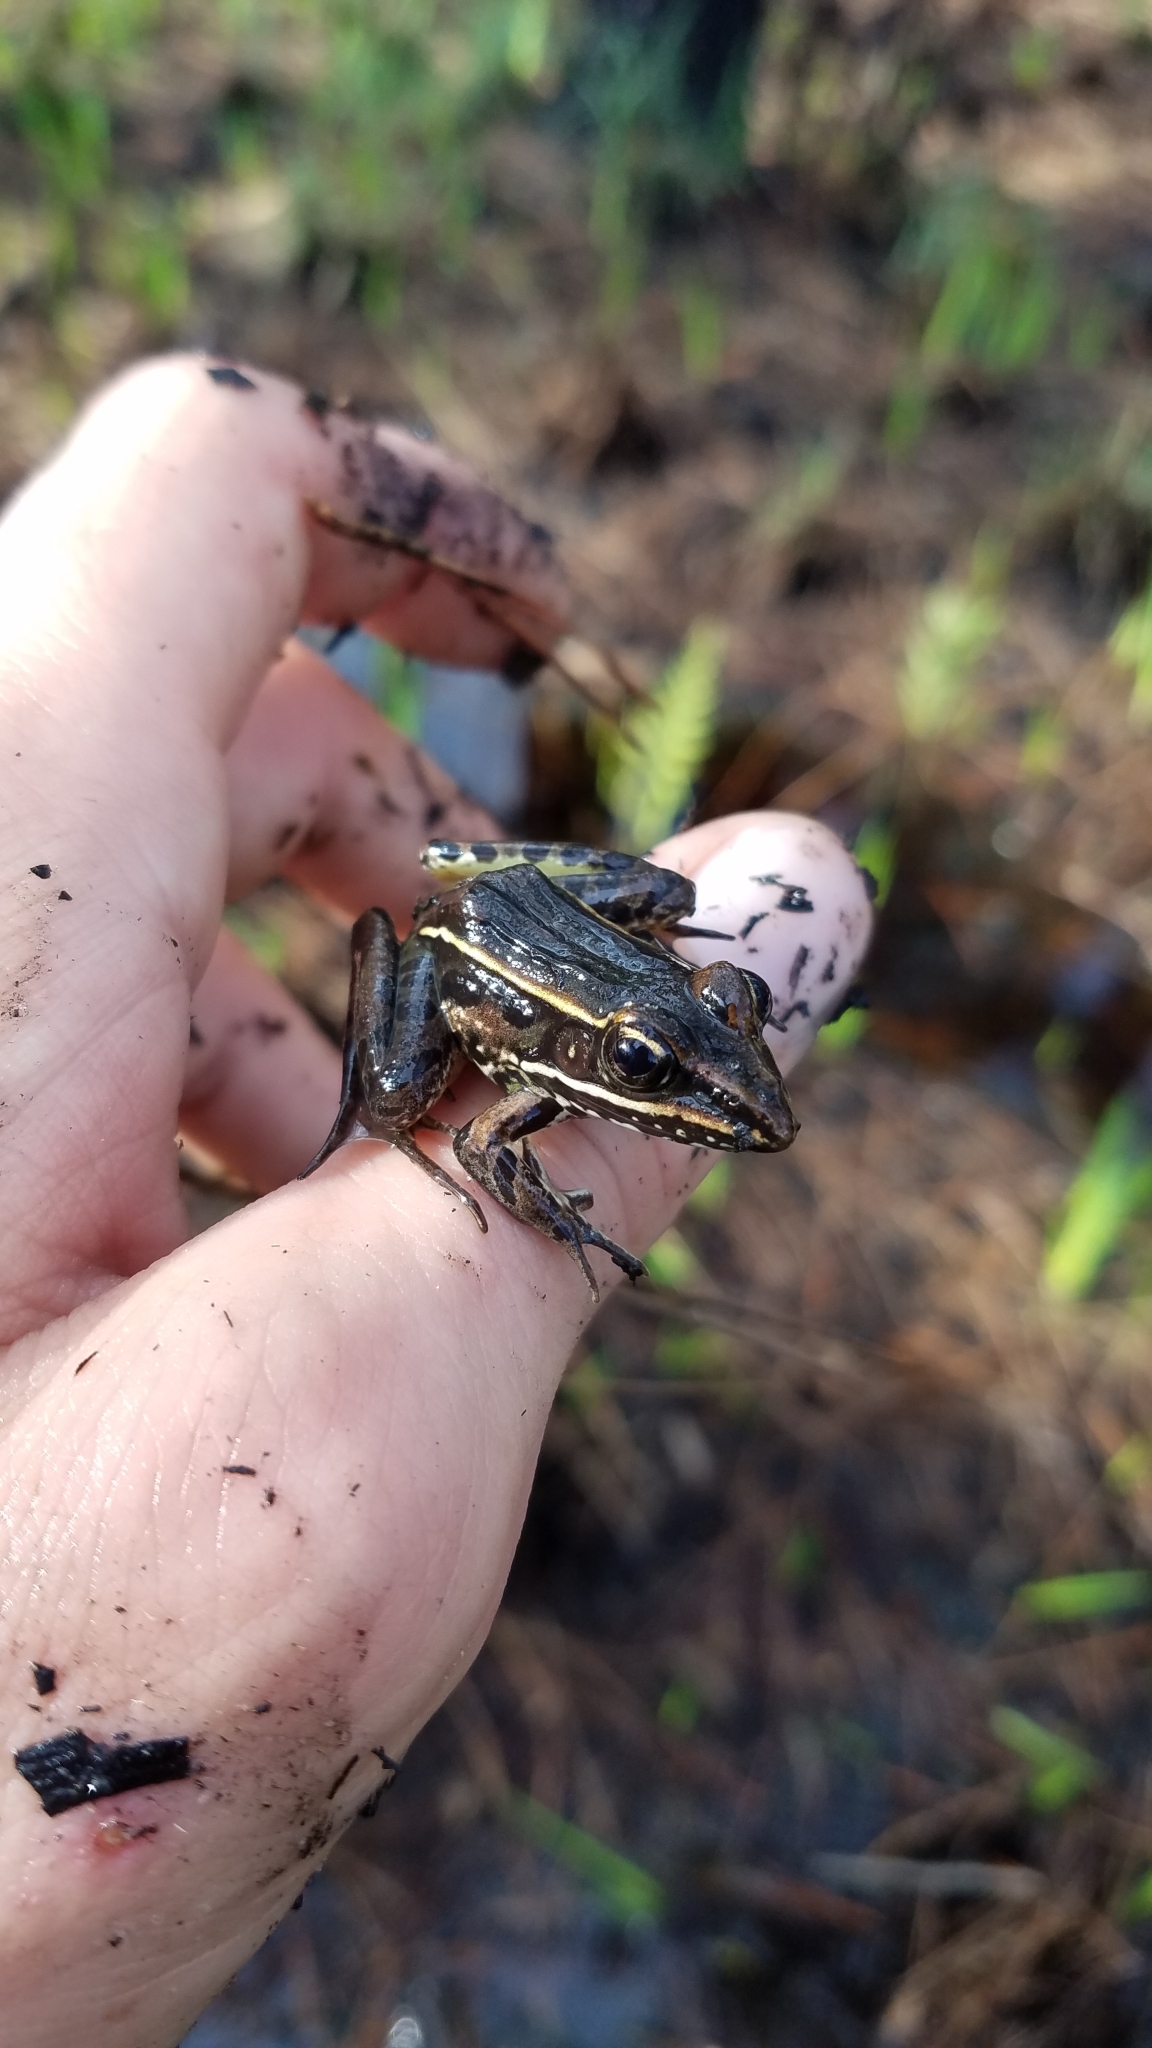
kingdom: Animalia
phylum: Chordata
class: Amphibia
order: Anura
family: Ranidae
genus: Lithobates
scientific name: Lithobates sphenocephalus
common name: Southern leopard frog
